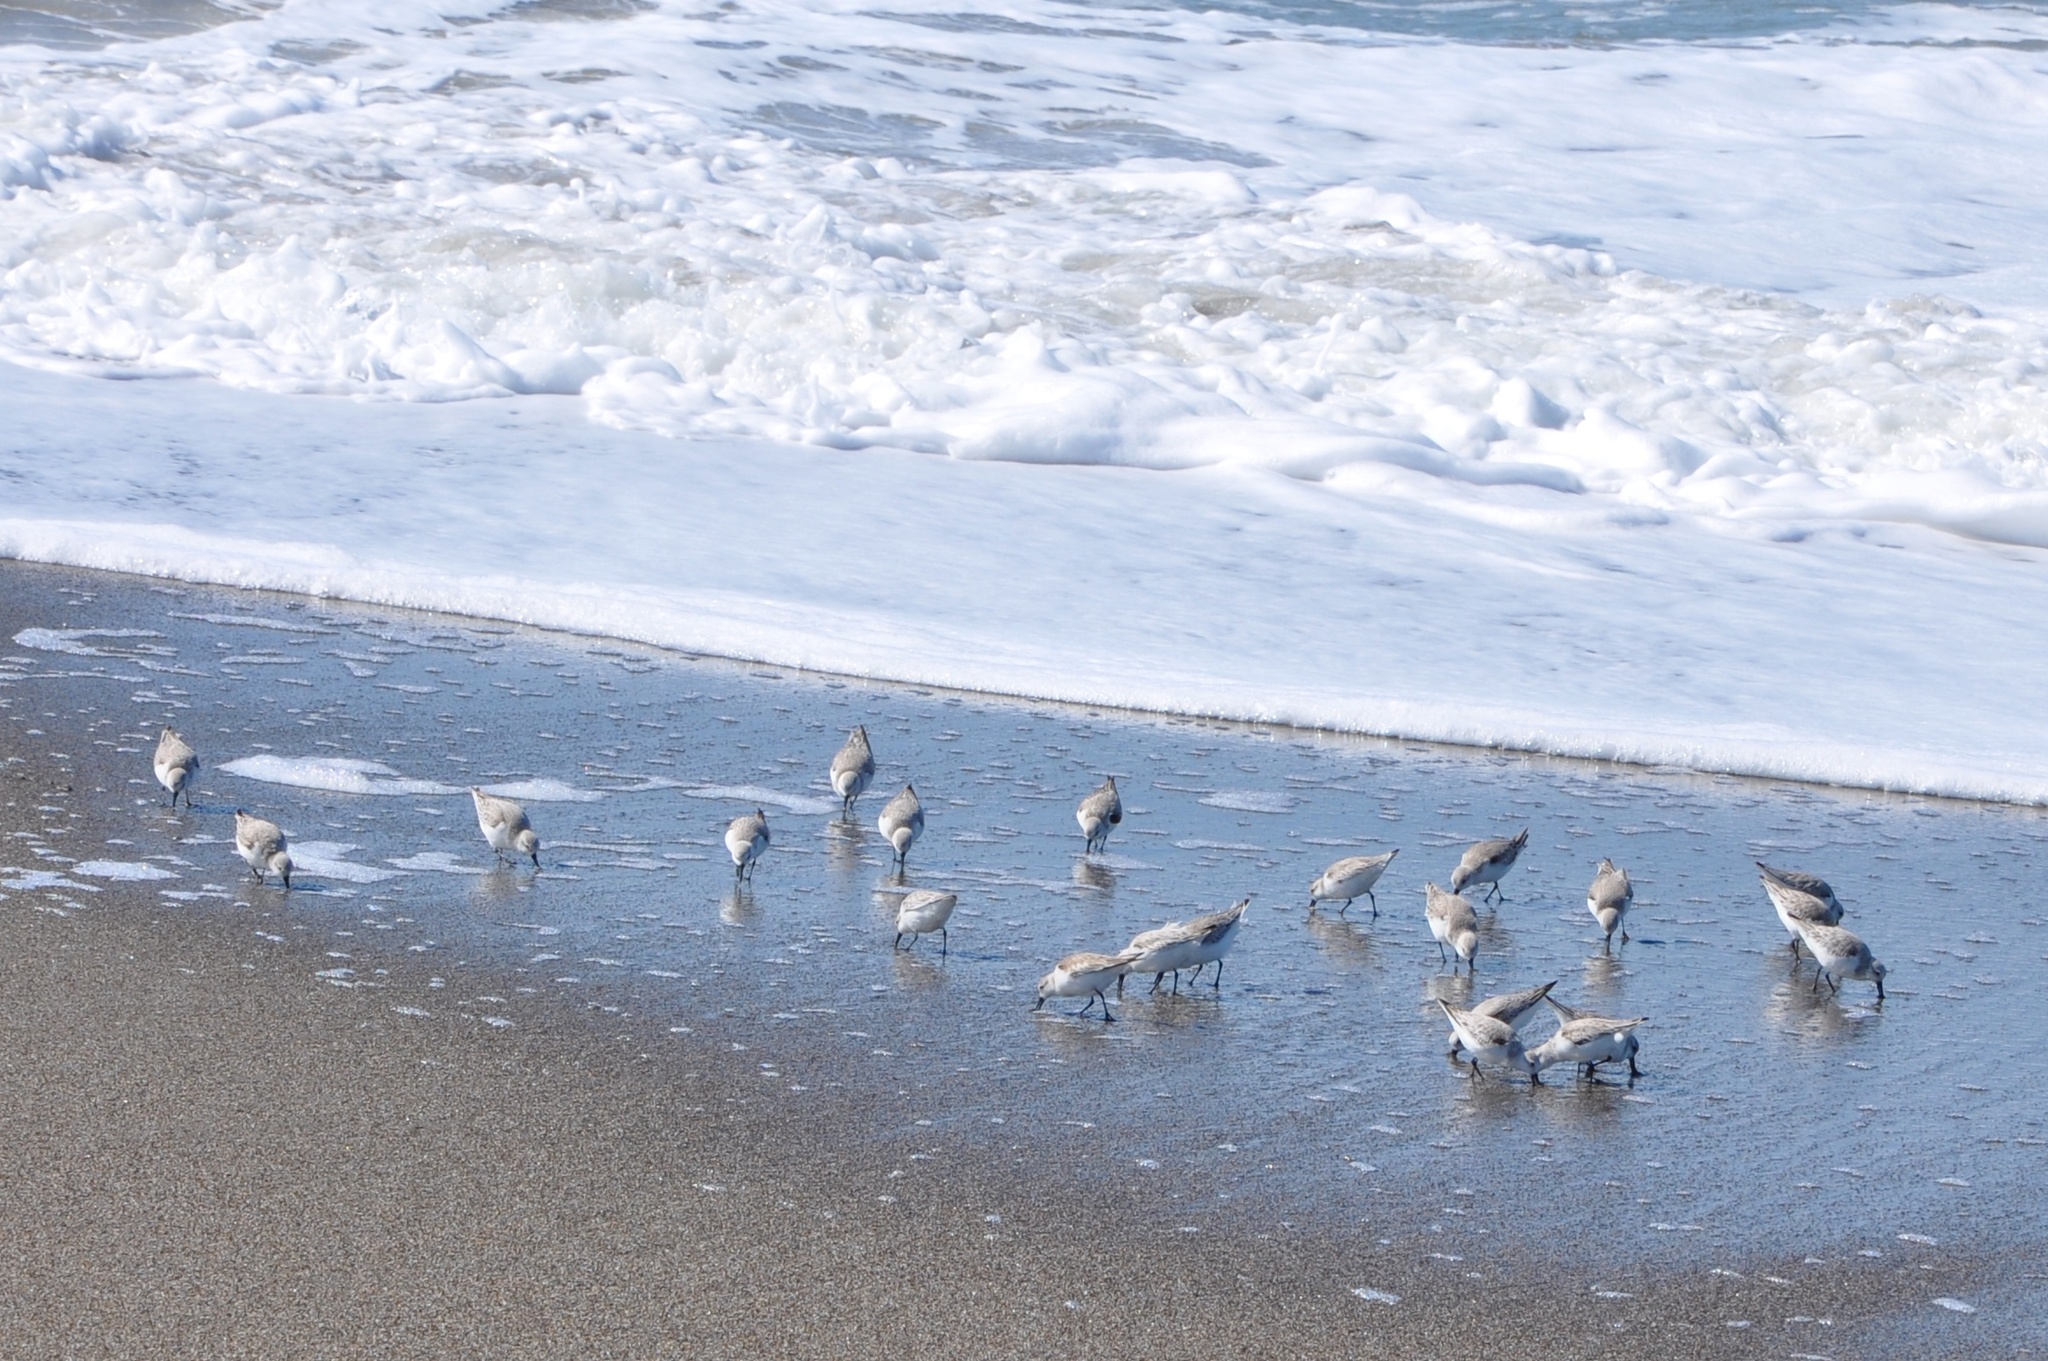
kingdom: Animalia
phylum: Chordata
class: Aves
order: Charadriiformes
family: Scolopacidae
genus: Calidris
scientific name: Calidris alba
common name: Sanderling
